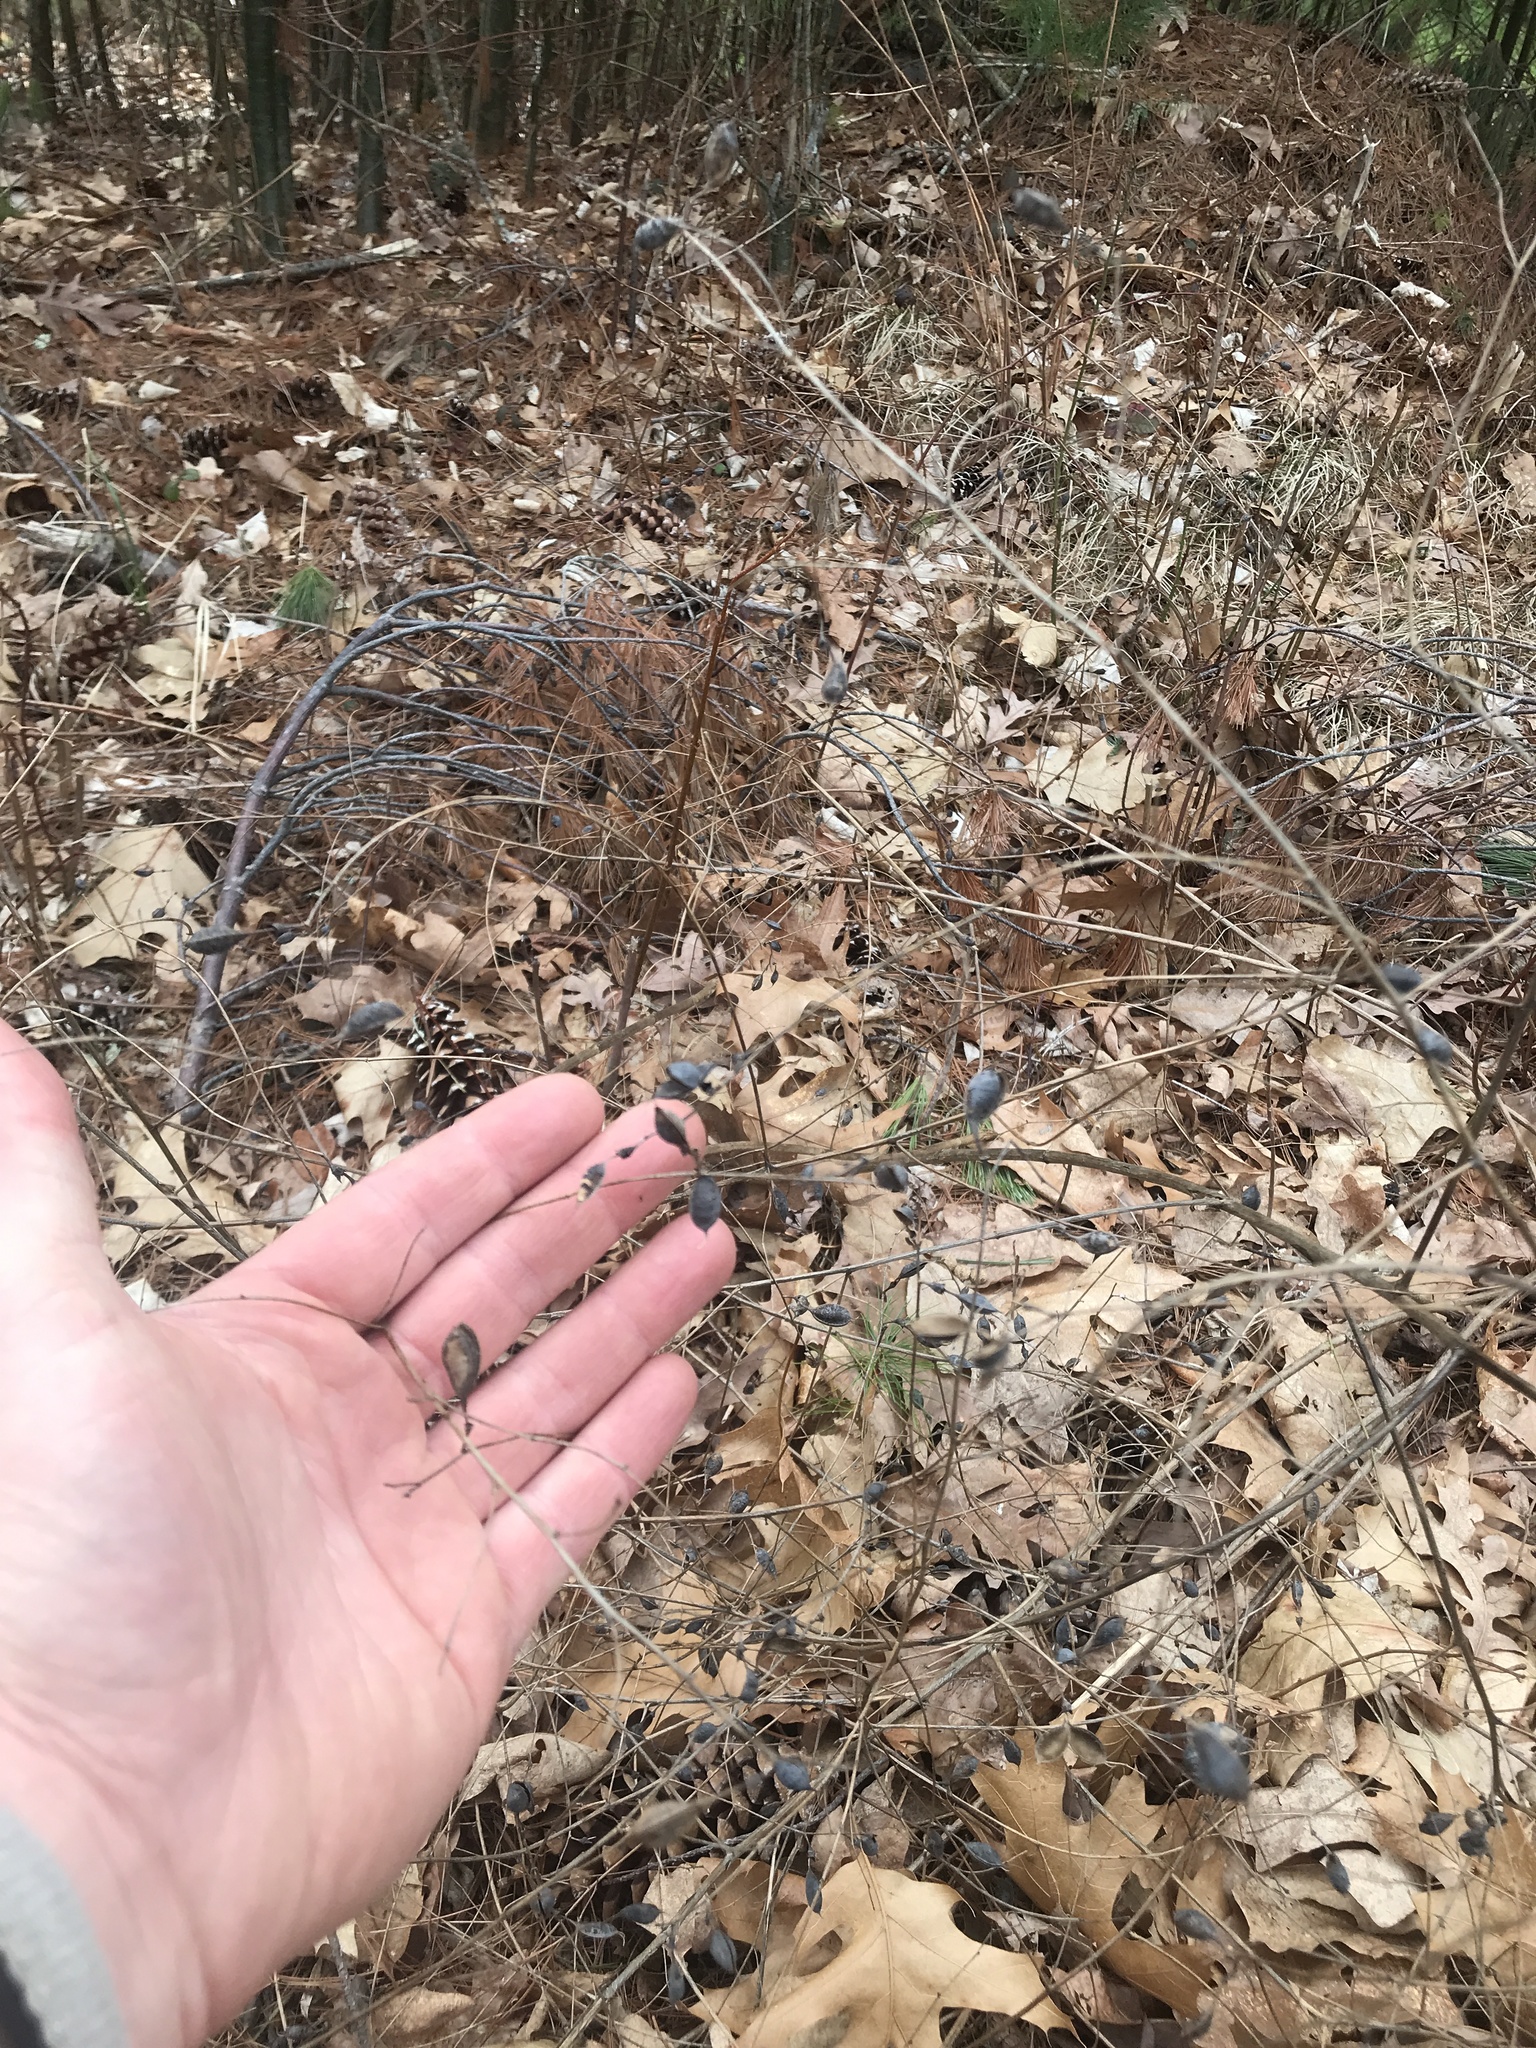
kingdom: Plantae
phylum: Tracheophyta
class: Magnoliopsida
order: Fabales
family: Fabaceae
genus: Baptisia
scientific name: Baptisia tinctoria
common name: Wild indigo
